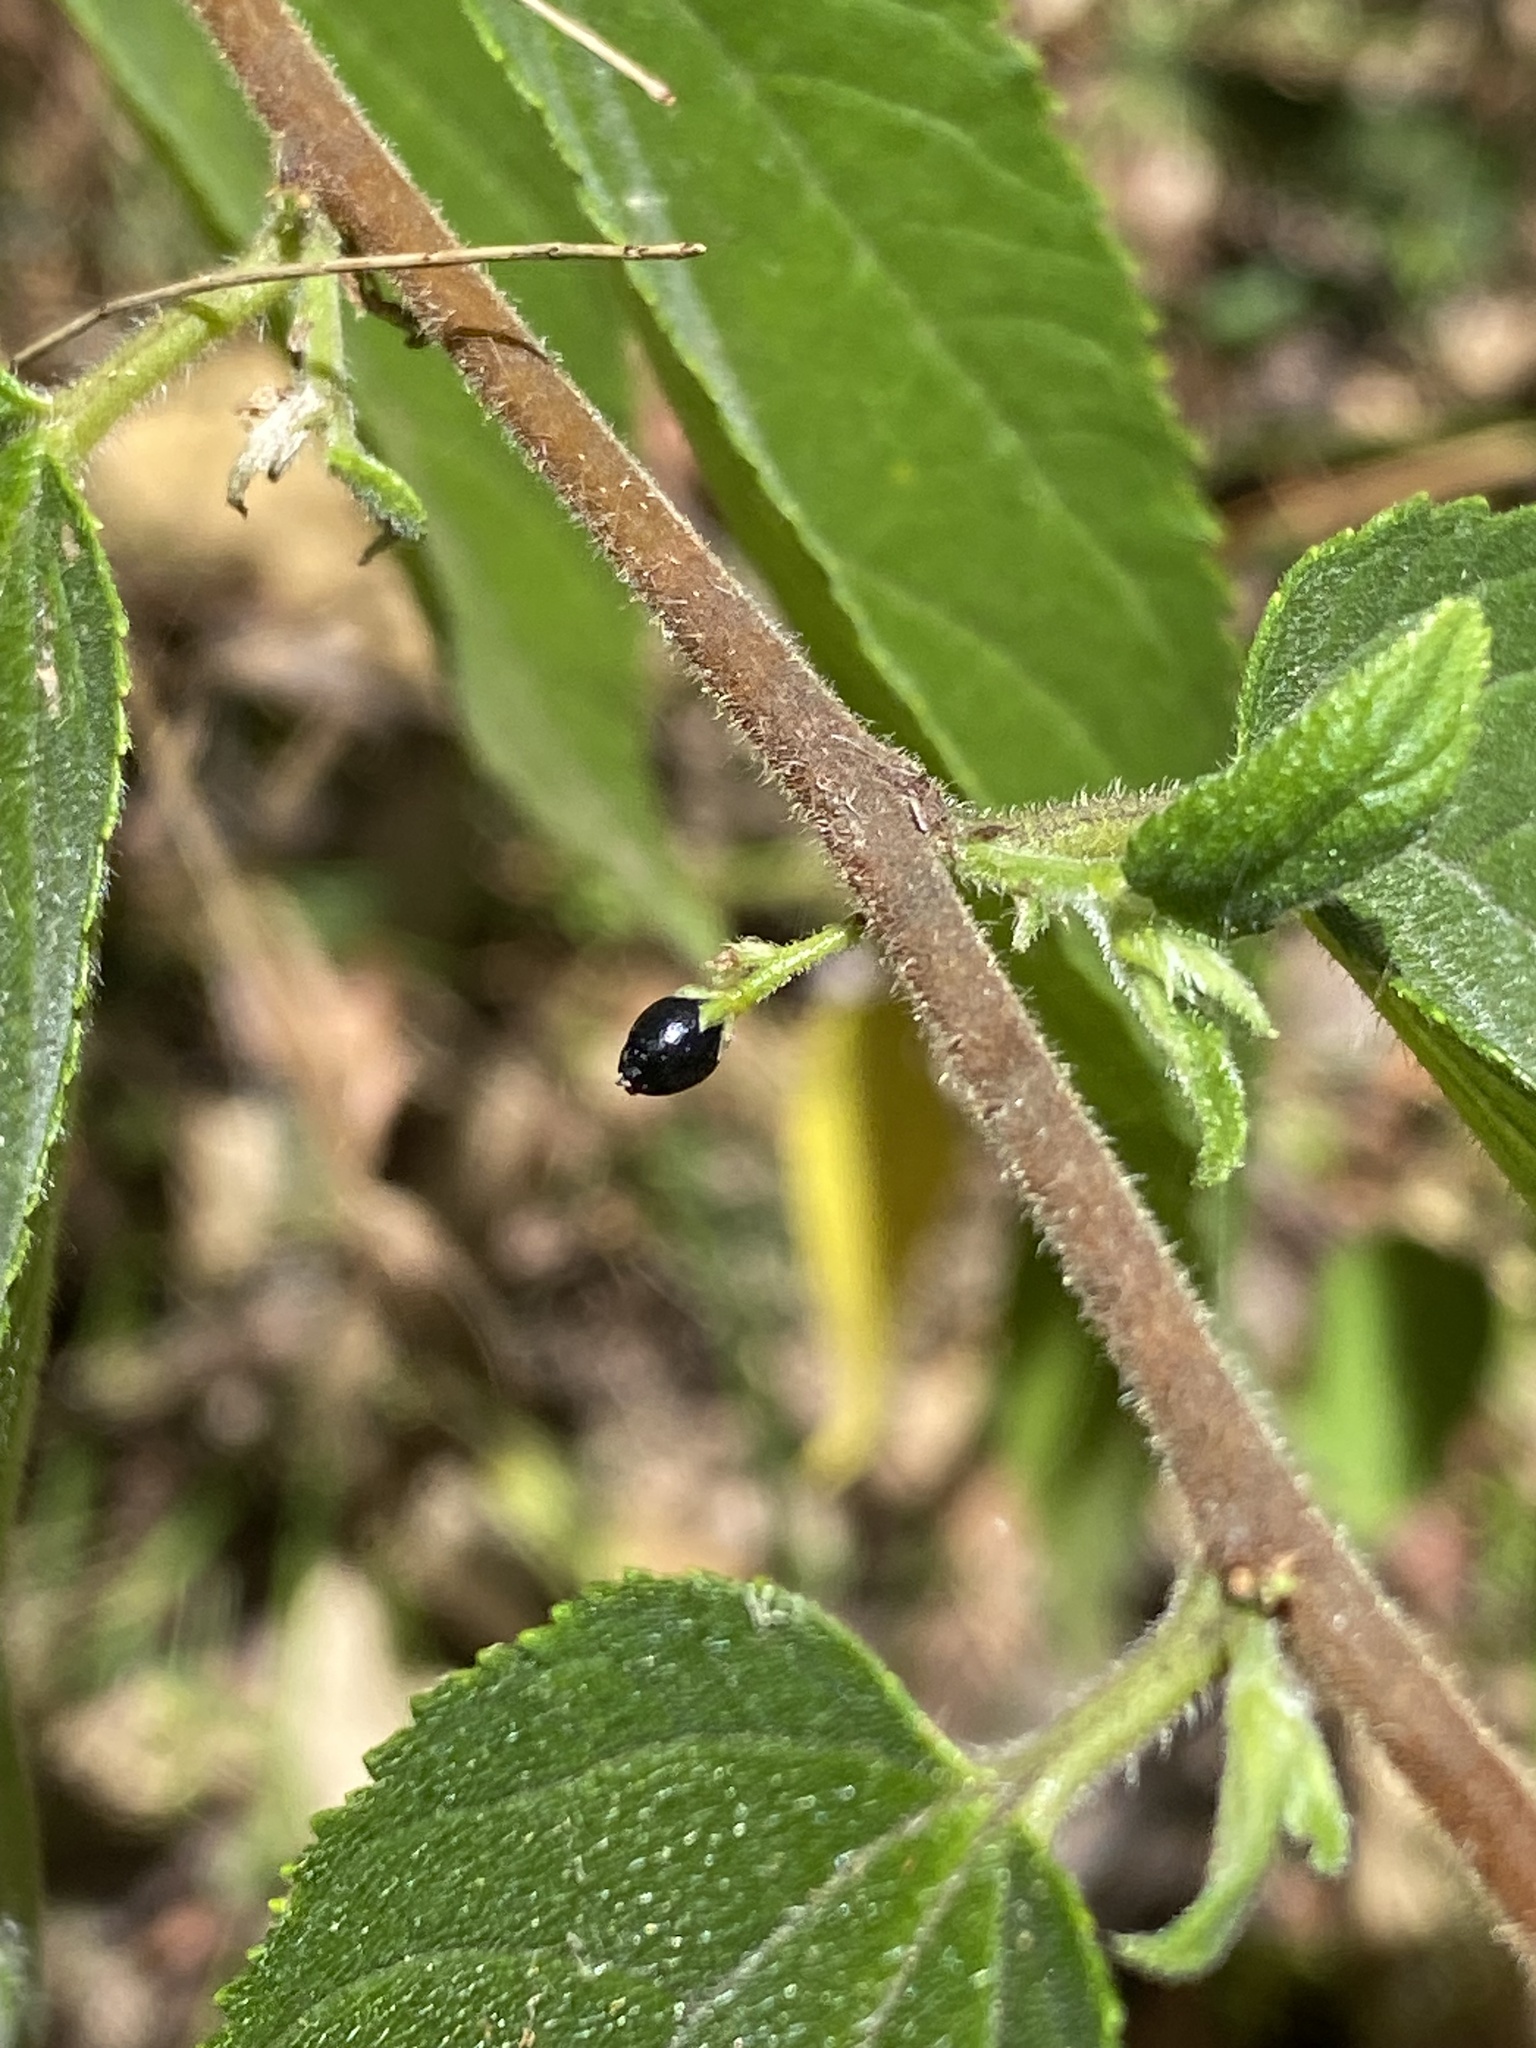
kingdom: Plantae
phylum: Tracheophyta
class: Magnoliopsida
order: Rosales
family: Cannabaceae
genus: Trema
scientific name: Trema tomentosum
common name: Peach-leaf-poisonbush
